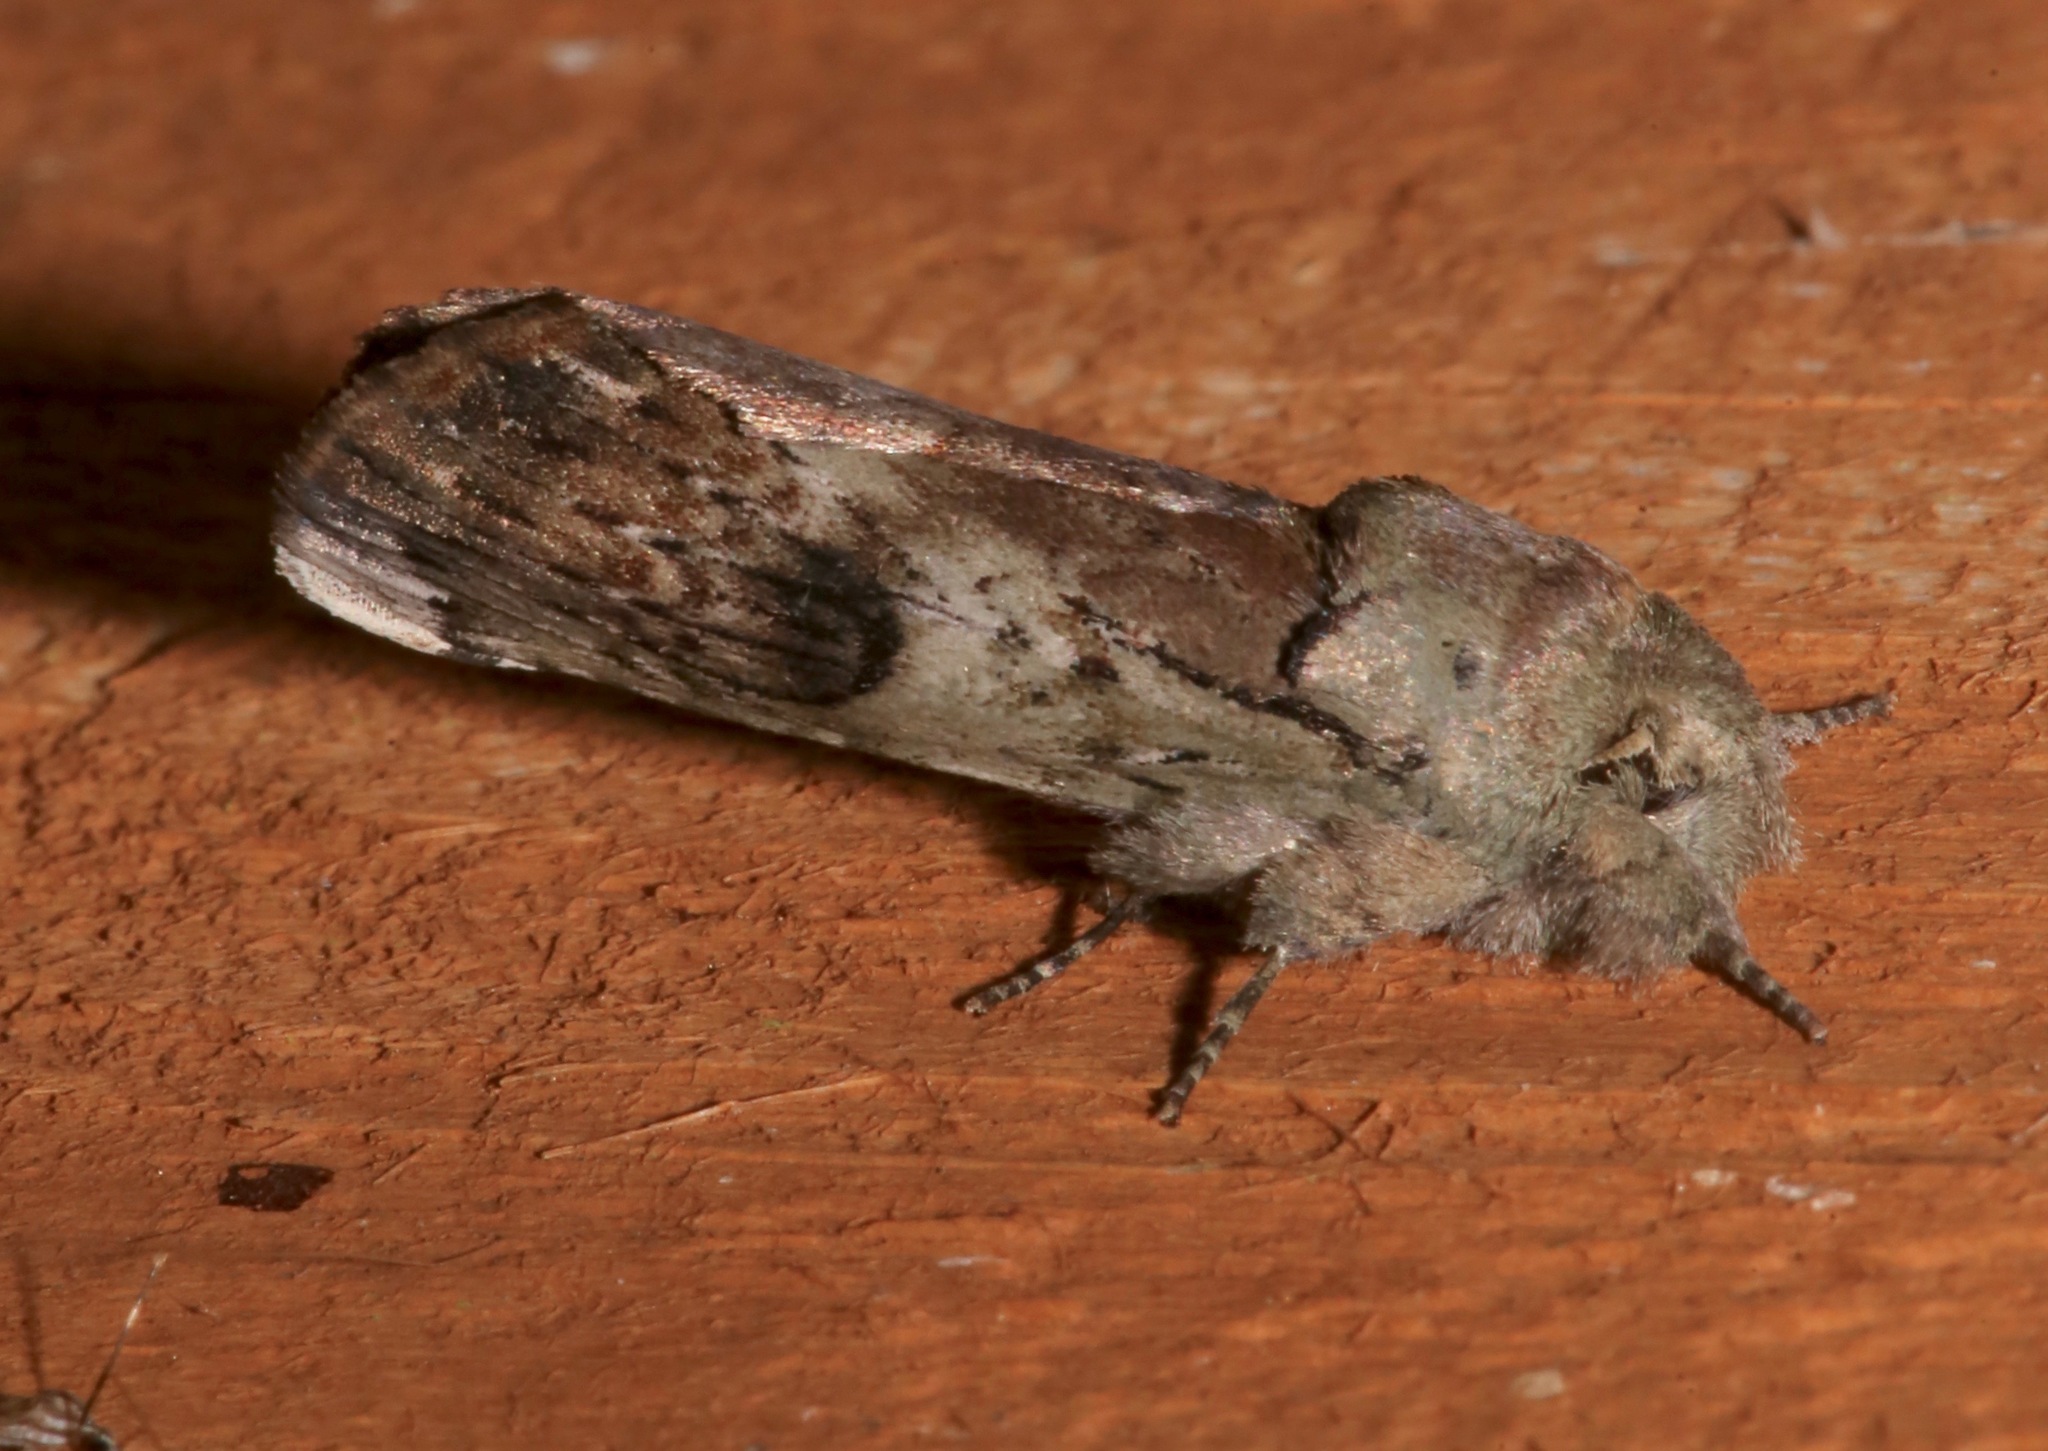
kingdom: Animalia
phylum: Arthropoda
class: Insecta
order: Lepidoptera
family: Notodontidae
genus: Schizura
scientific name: Schizura
